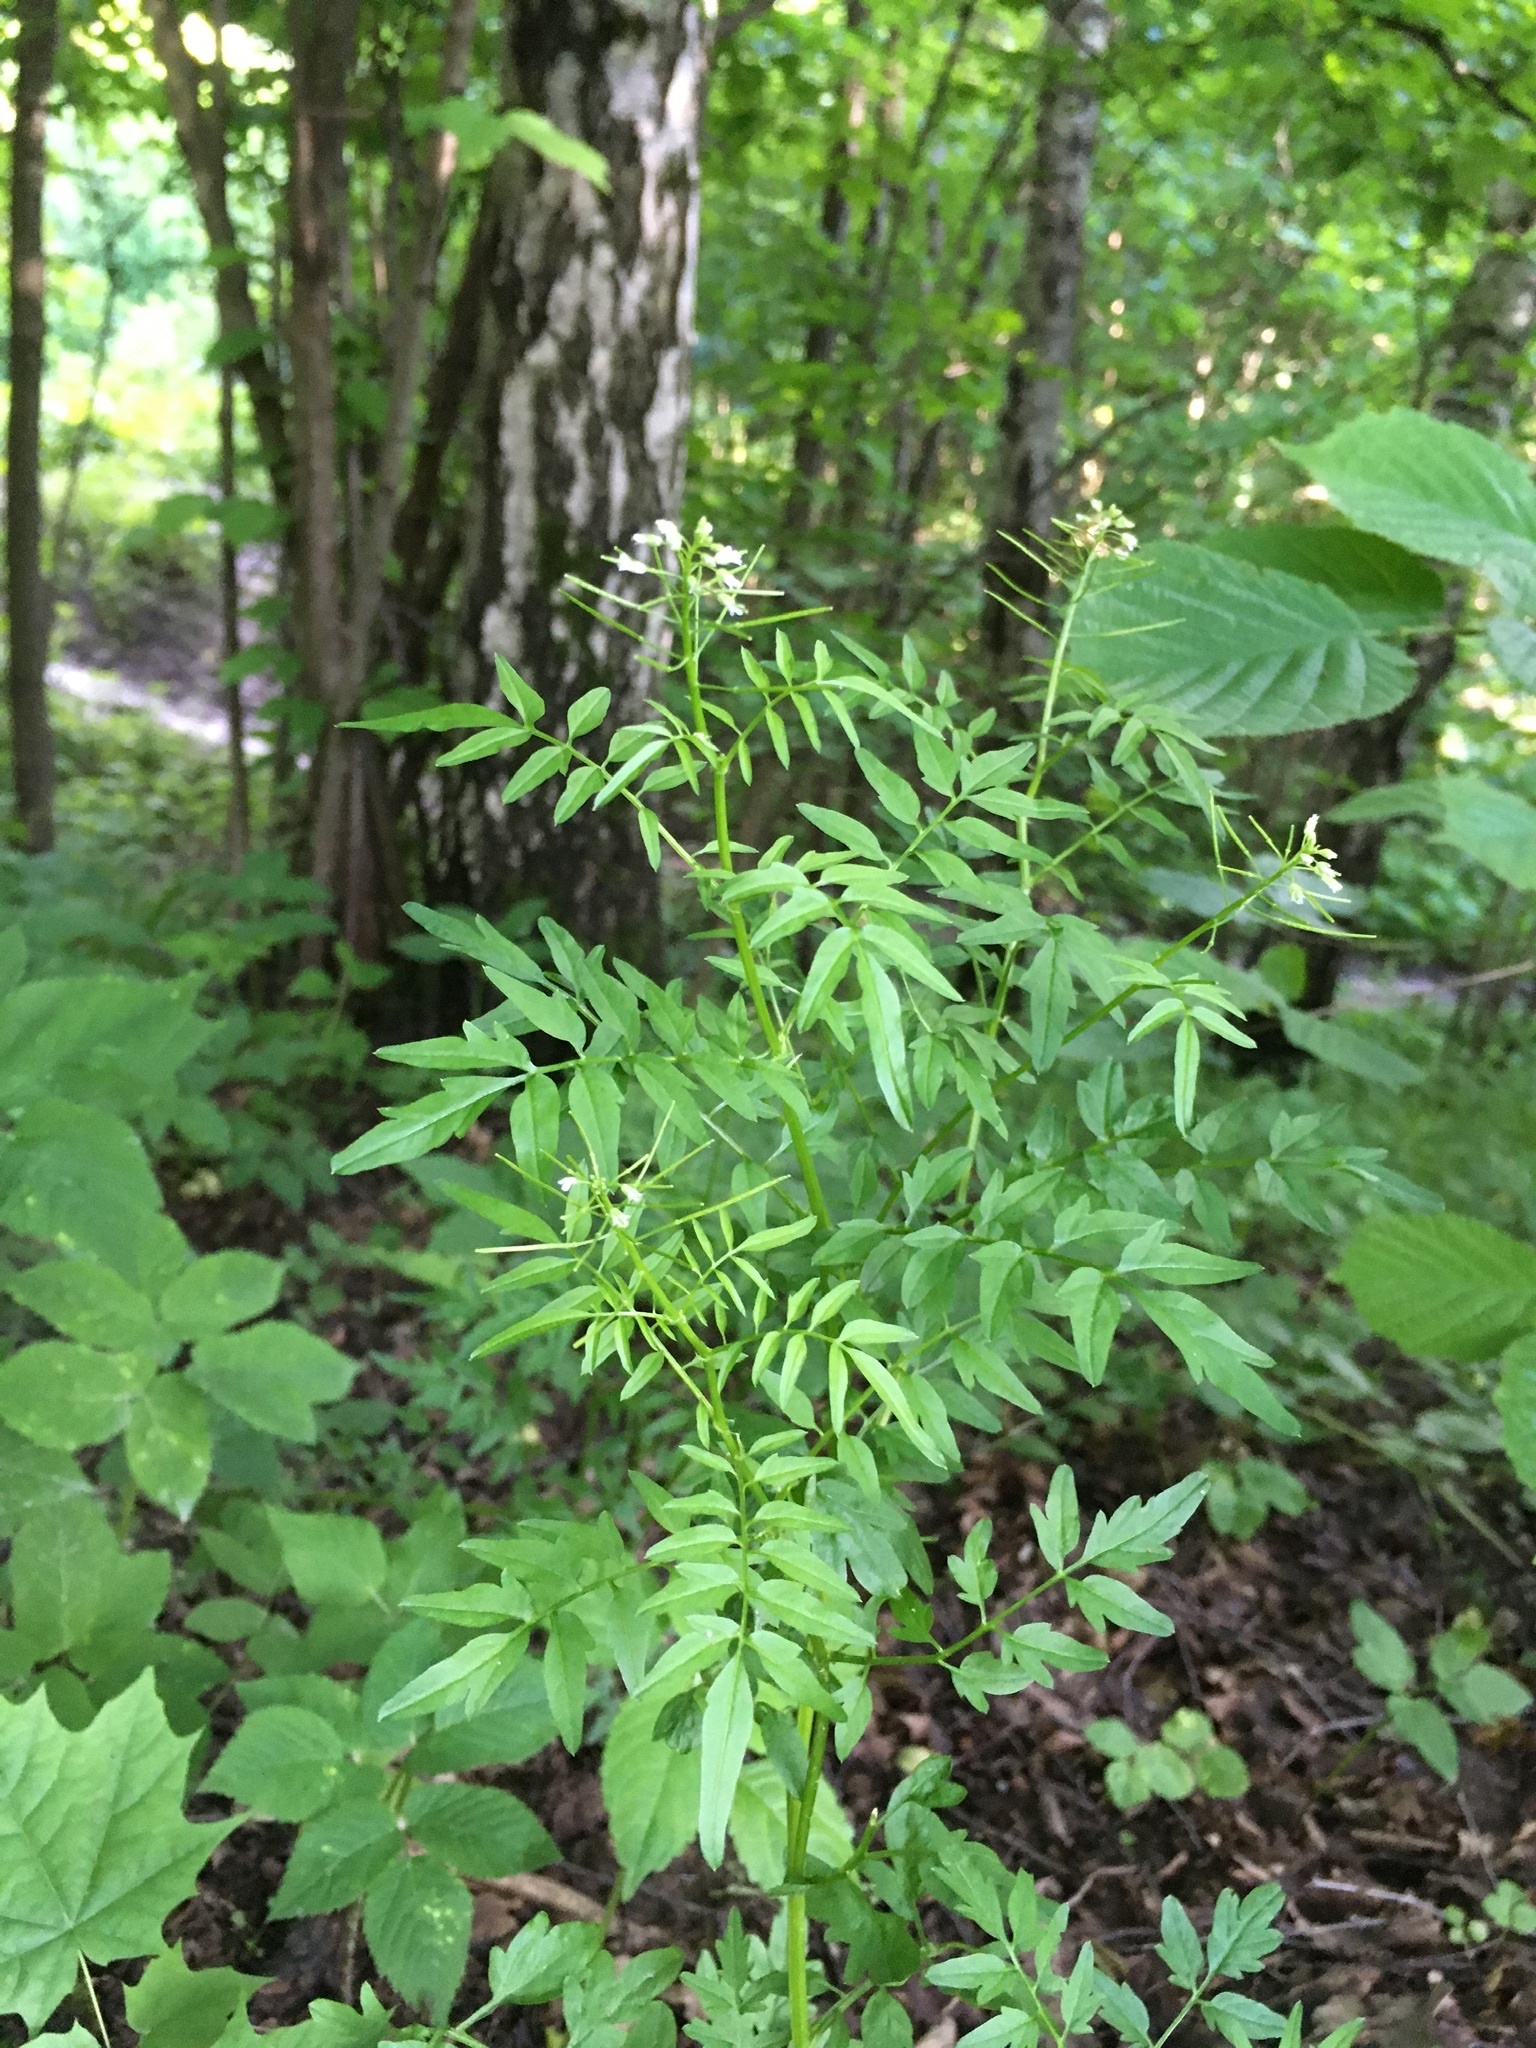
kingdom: Plantae
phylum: Tracheophyta
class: Magnoliopsida
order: Brassicales
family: Brassicaceae
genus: Cardamine
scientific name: Cardamine impatiens
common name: Narrow-leaved bitter-cress
